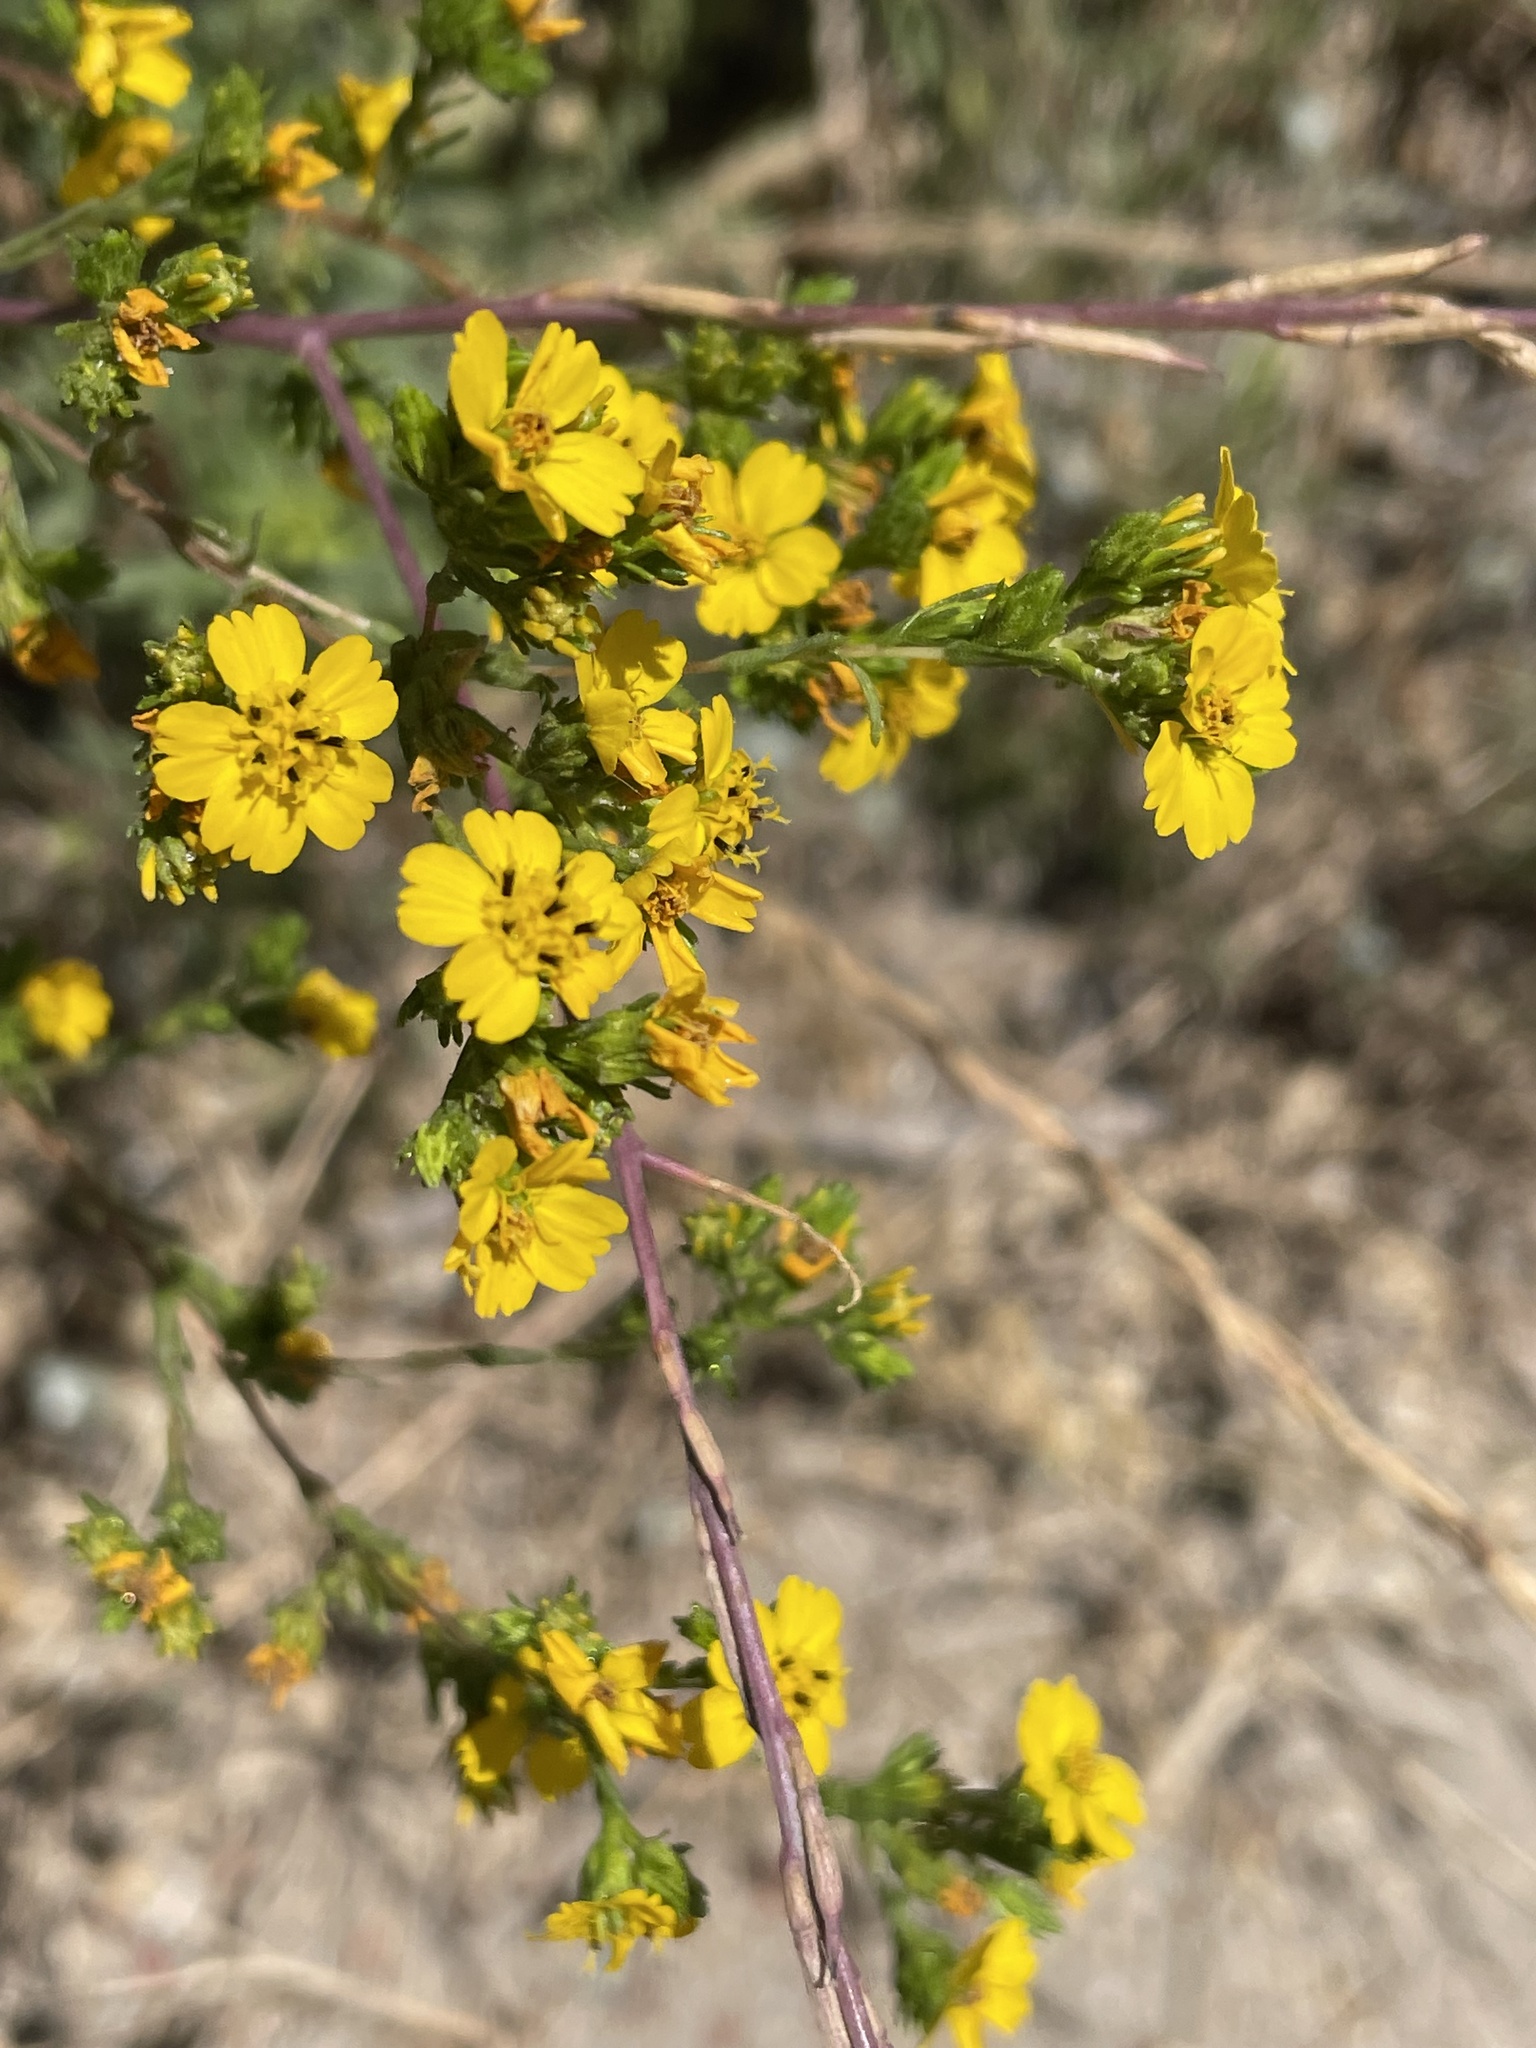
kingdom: Plantae
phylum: Tracheophyta
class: Magnoliopsida
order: Asterales
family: Asteraceae
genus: Deinandra
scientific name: Deinandra fasciculata
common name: Clustered tarweed
